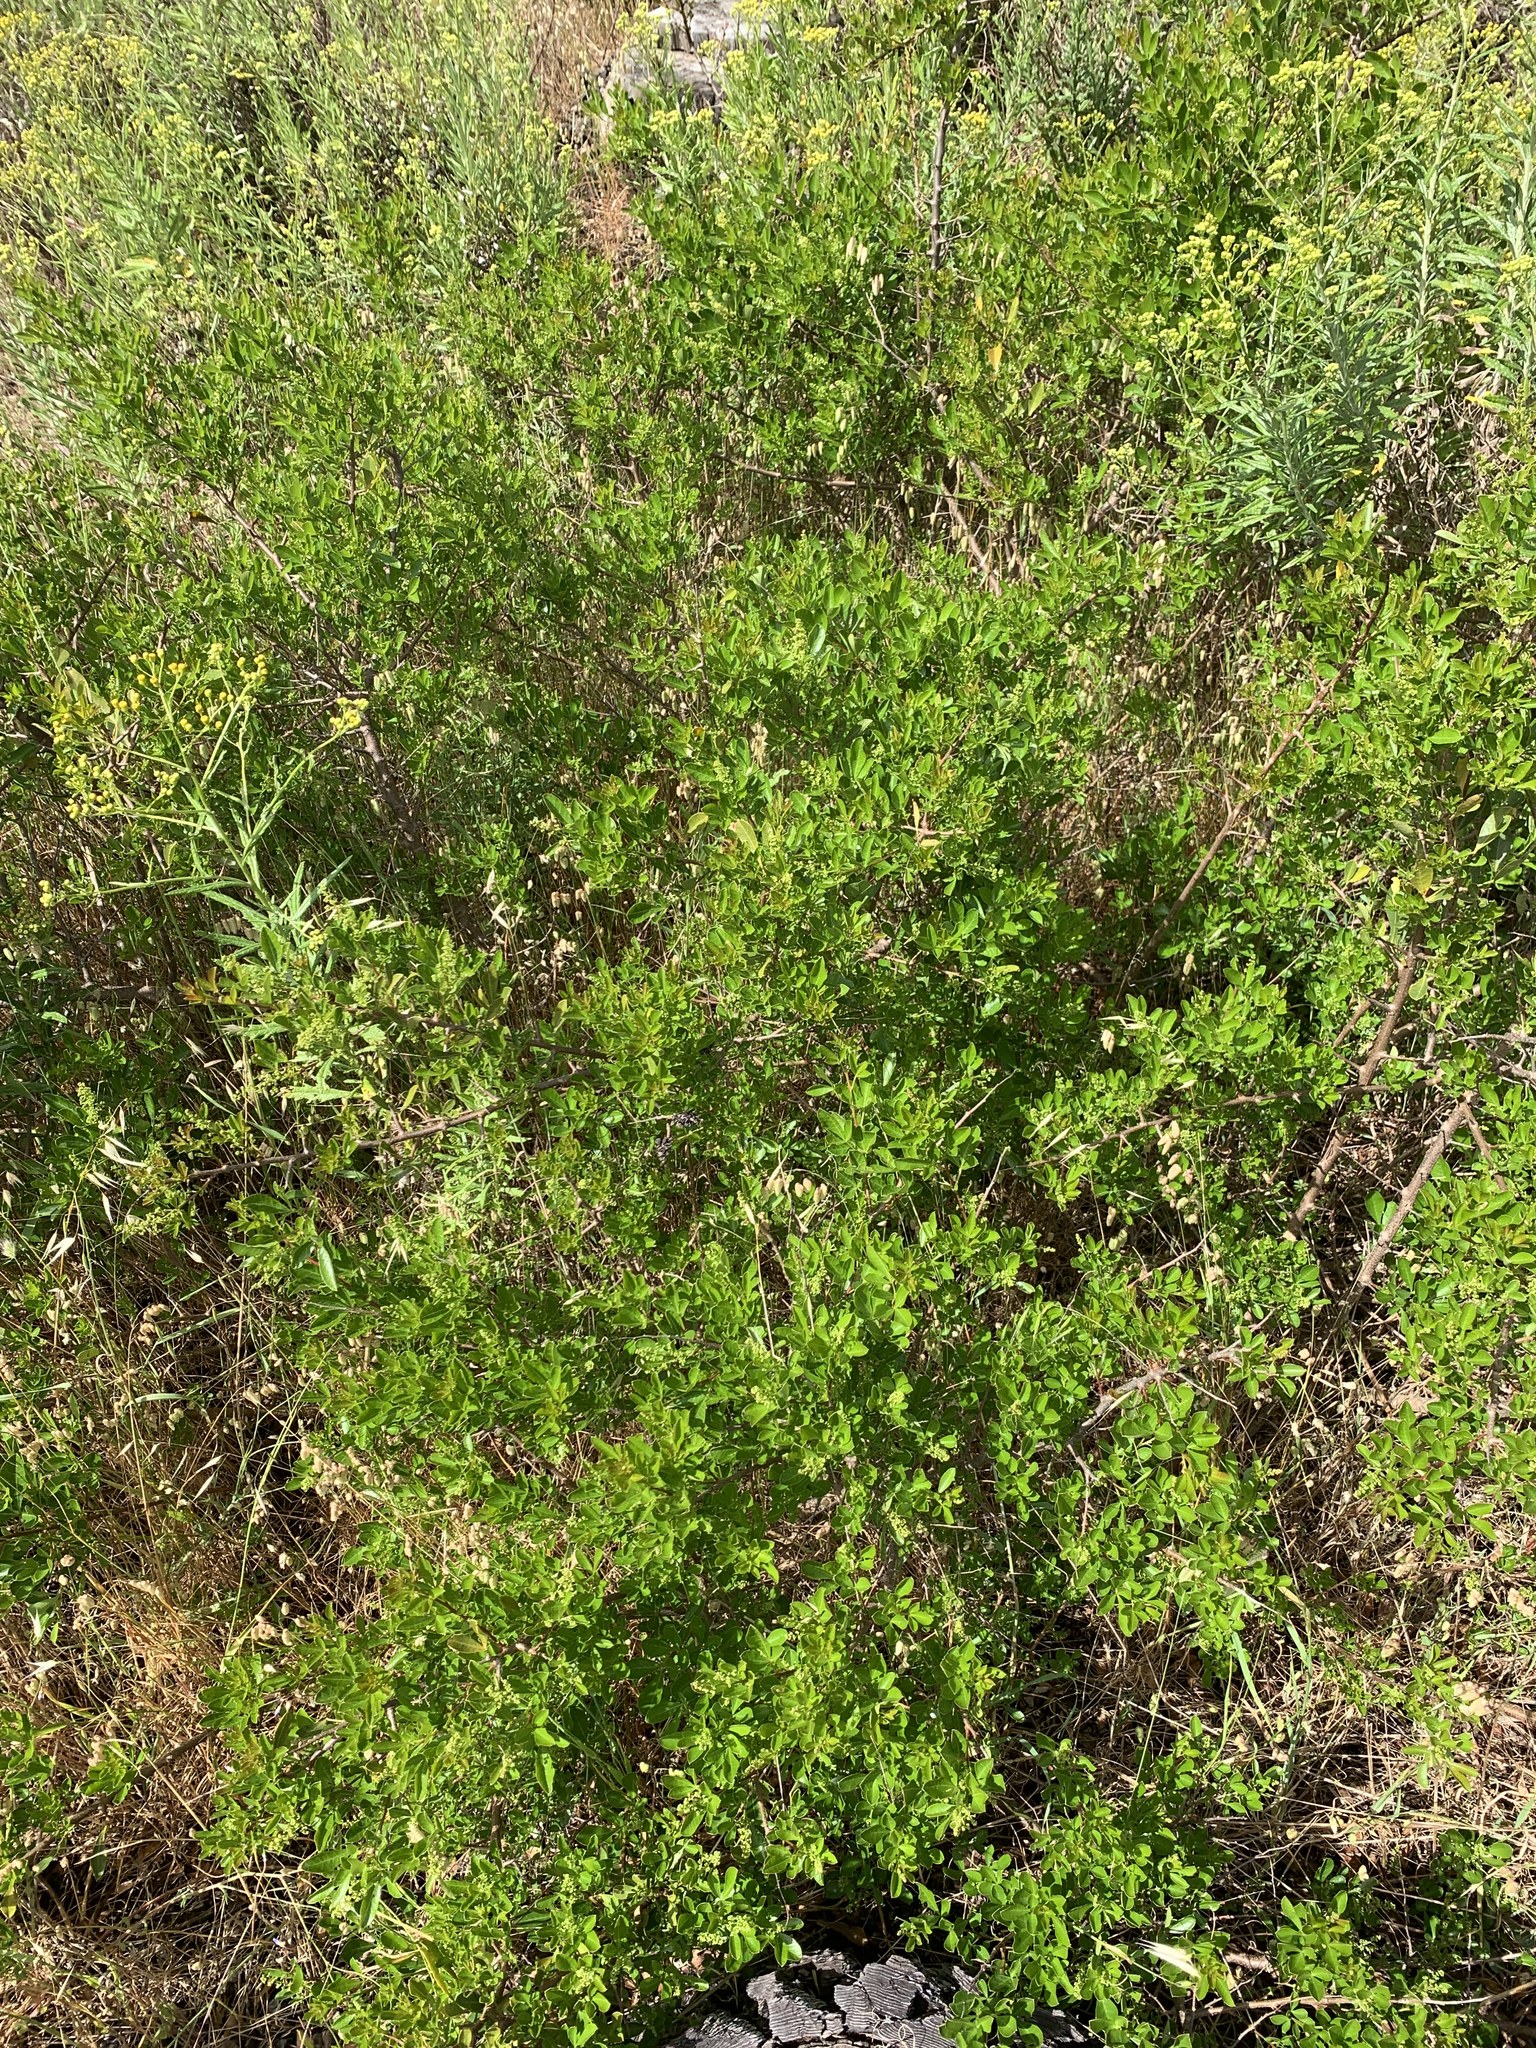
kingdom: Plantae
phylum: Tracheophyta
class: Magnoliopsida
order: Sapindales
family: Anacardiaceae
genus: Searsia
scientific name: Searsia laevigata
